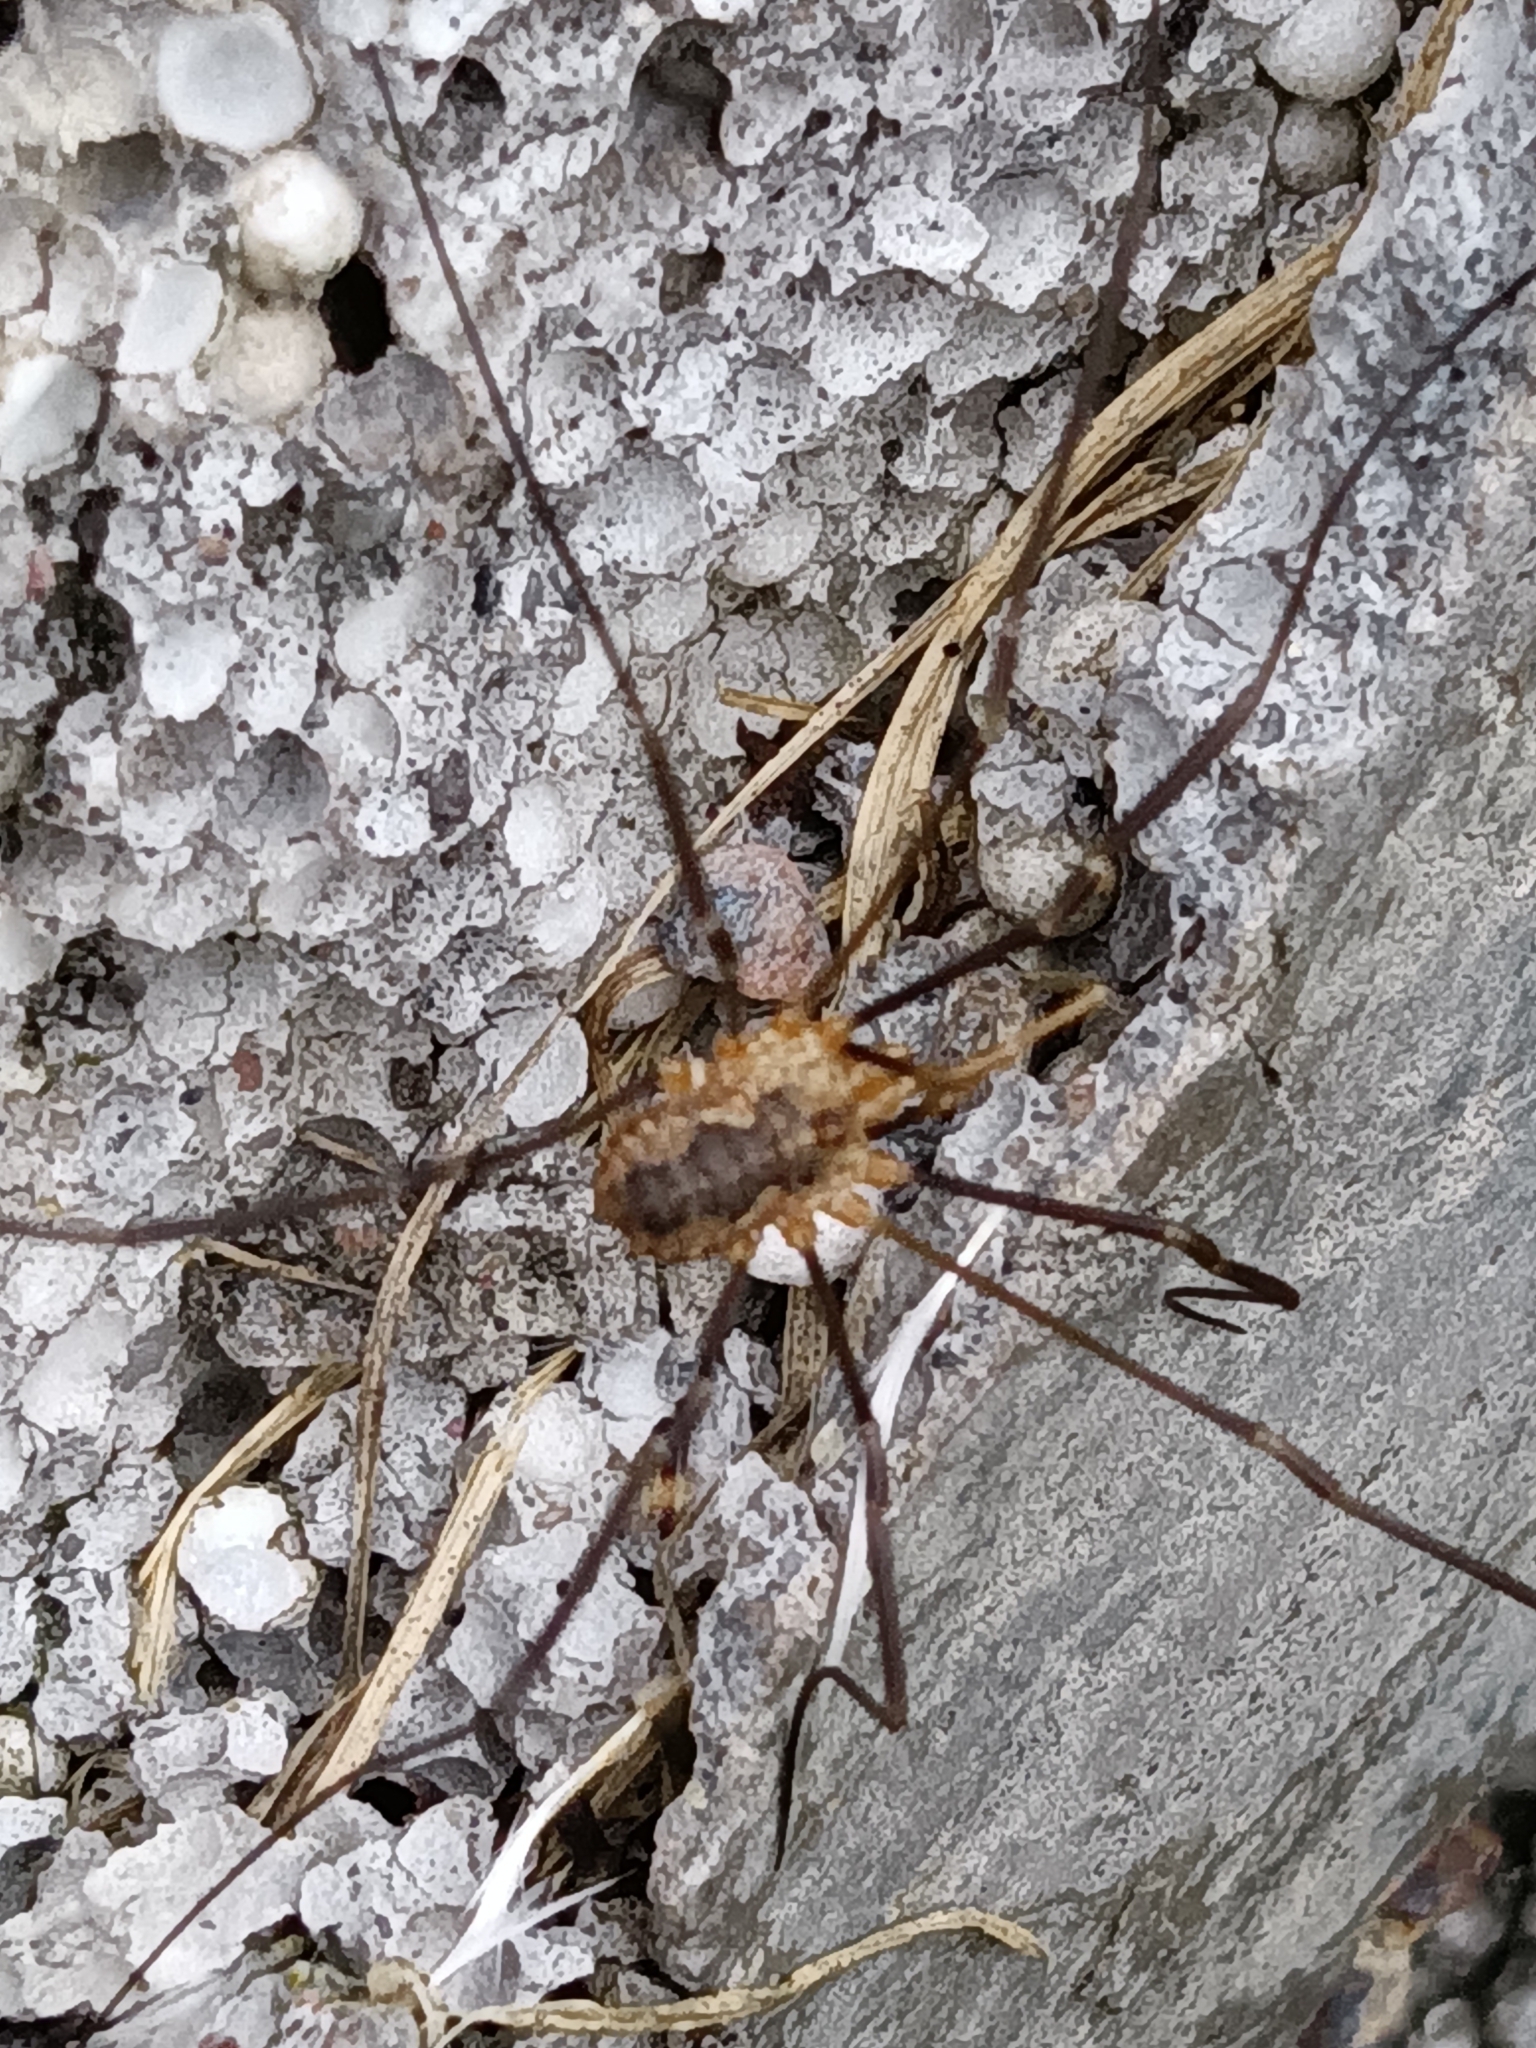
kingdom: Animalia
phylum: Arthropoda
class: Arachnida
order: Opiliones
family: Phalangiidae
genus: Phalangium
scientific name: Phalangium opilio
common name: Daddy longleg
